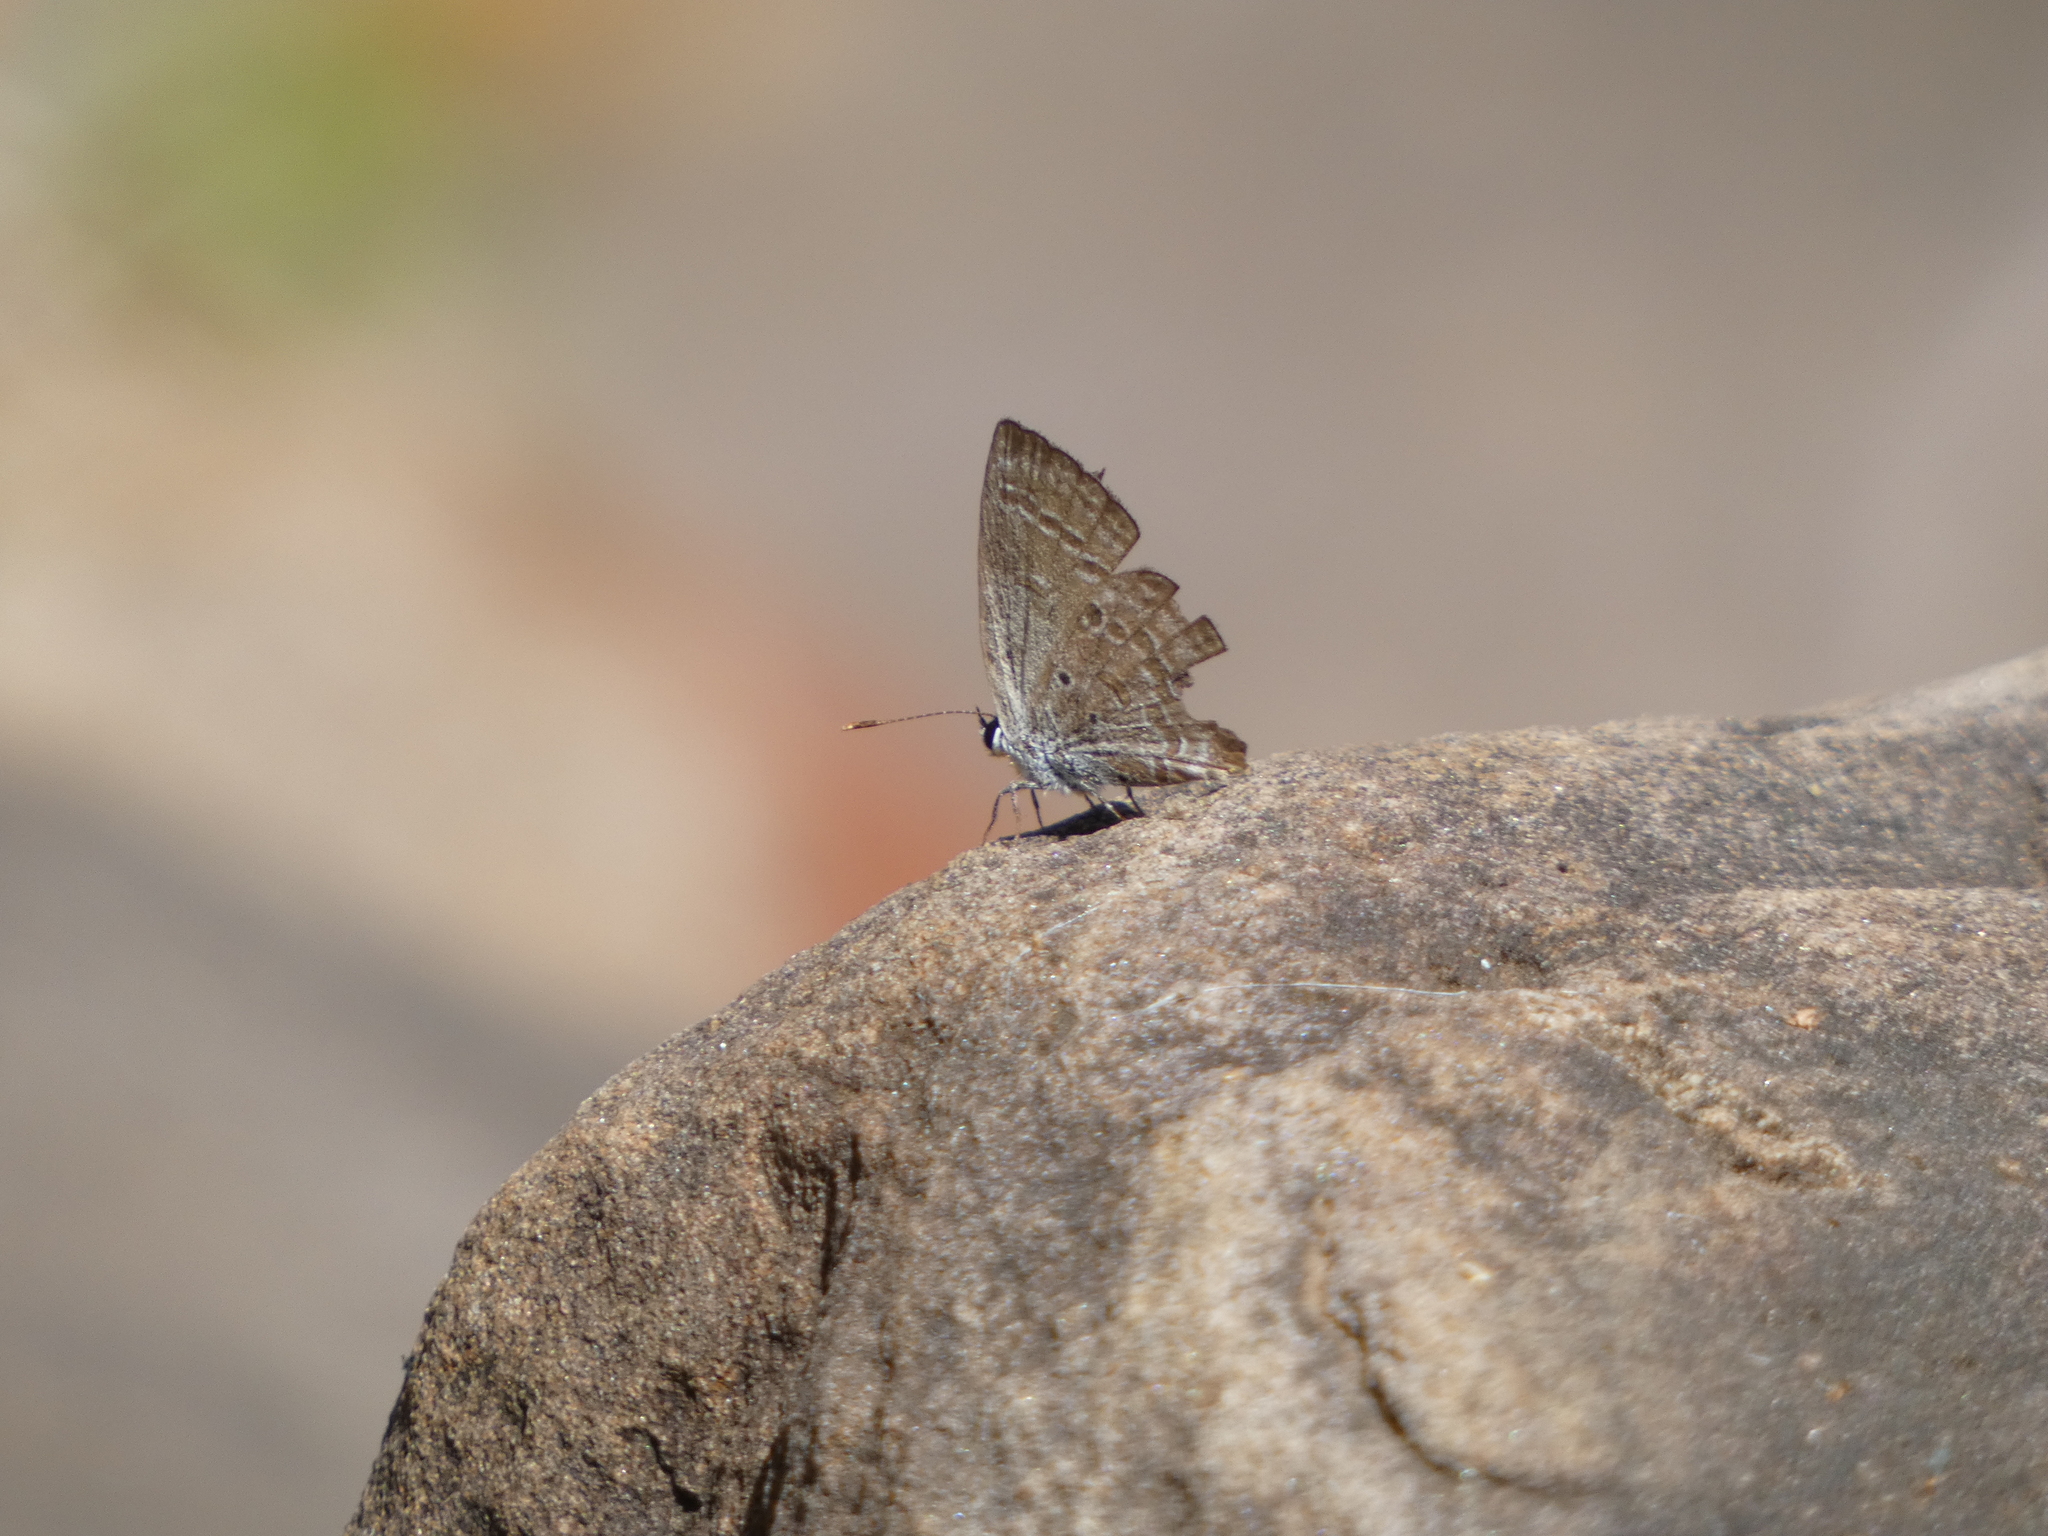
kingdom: Animalia
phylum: Arthropoda
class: Insecta
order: Lepidoptera
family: Lycaenidae
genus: Luthrodes
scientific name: Luthrodes pandava
